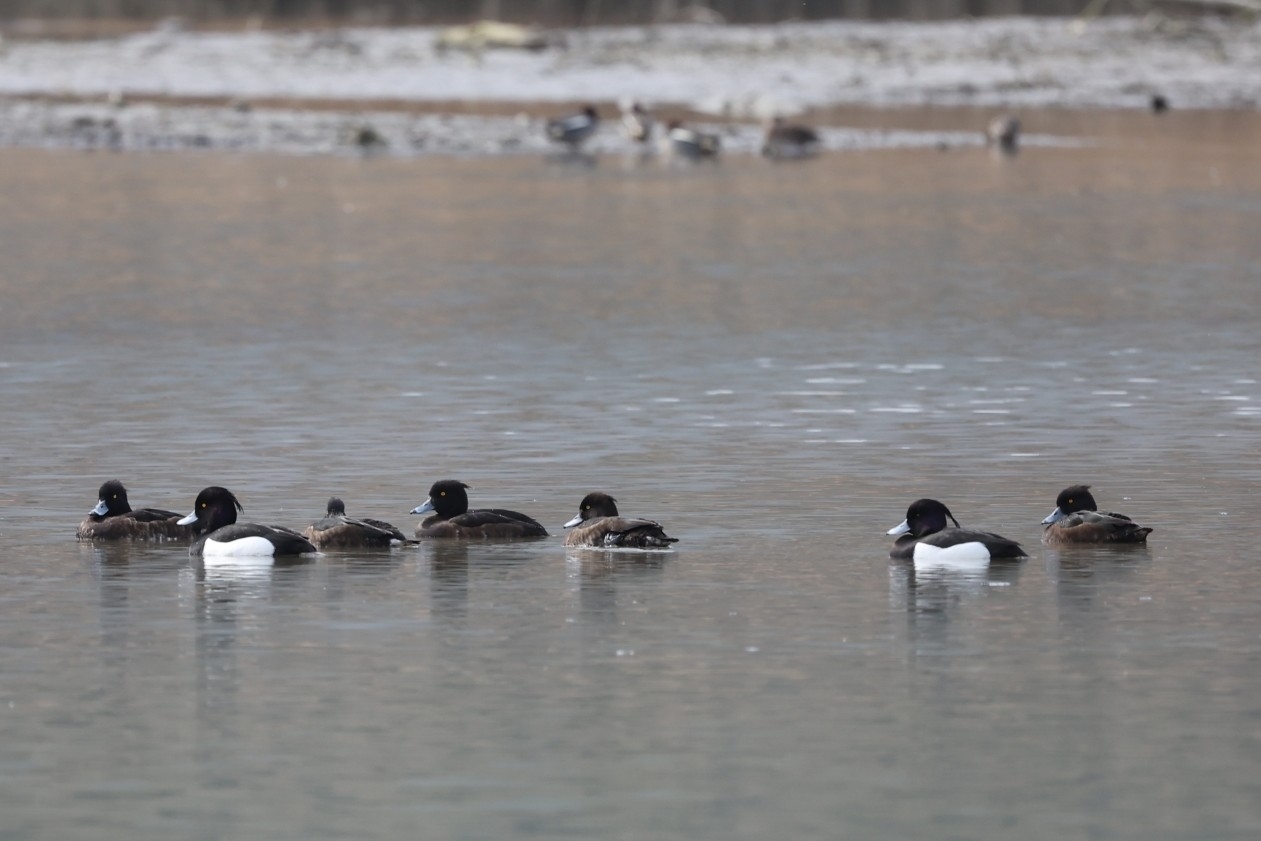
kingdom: Animalia
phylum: Chordata
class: Aves
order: Anseriformes
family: Anatidae
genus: Aythya
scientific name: Aythya fuligula
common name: Tufted duck
